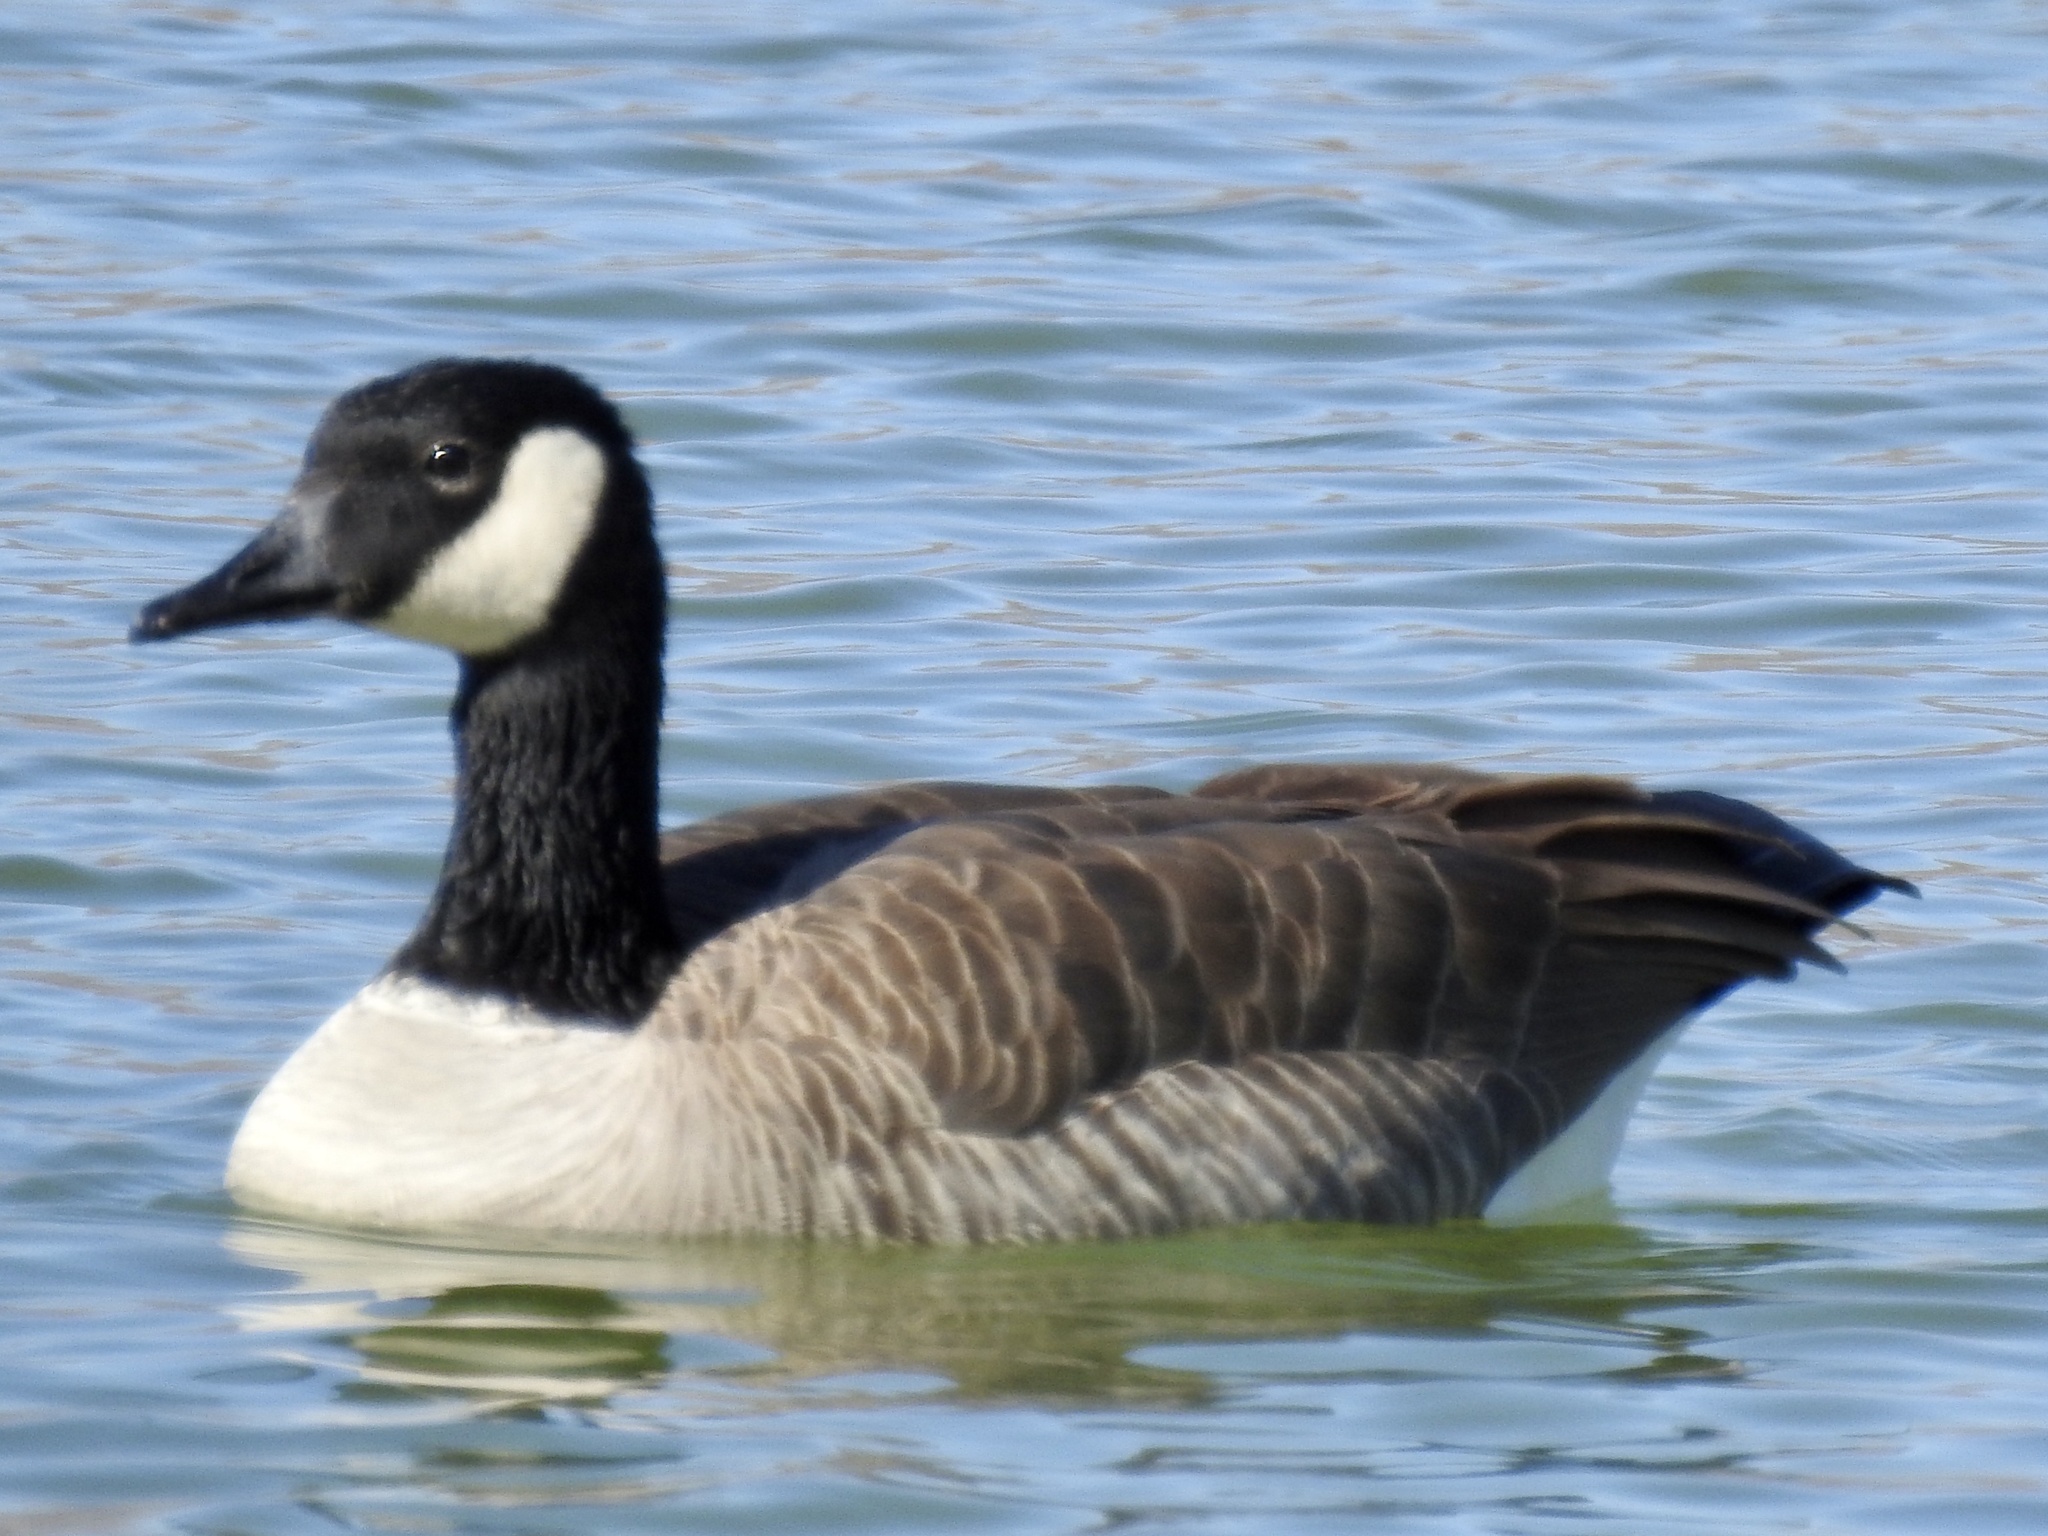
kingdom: Animalia
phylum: Chordata
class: Aves
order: Anseriformes
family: Anatidae
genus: Branta
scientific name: Branta canadensis
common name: Canada goose
